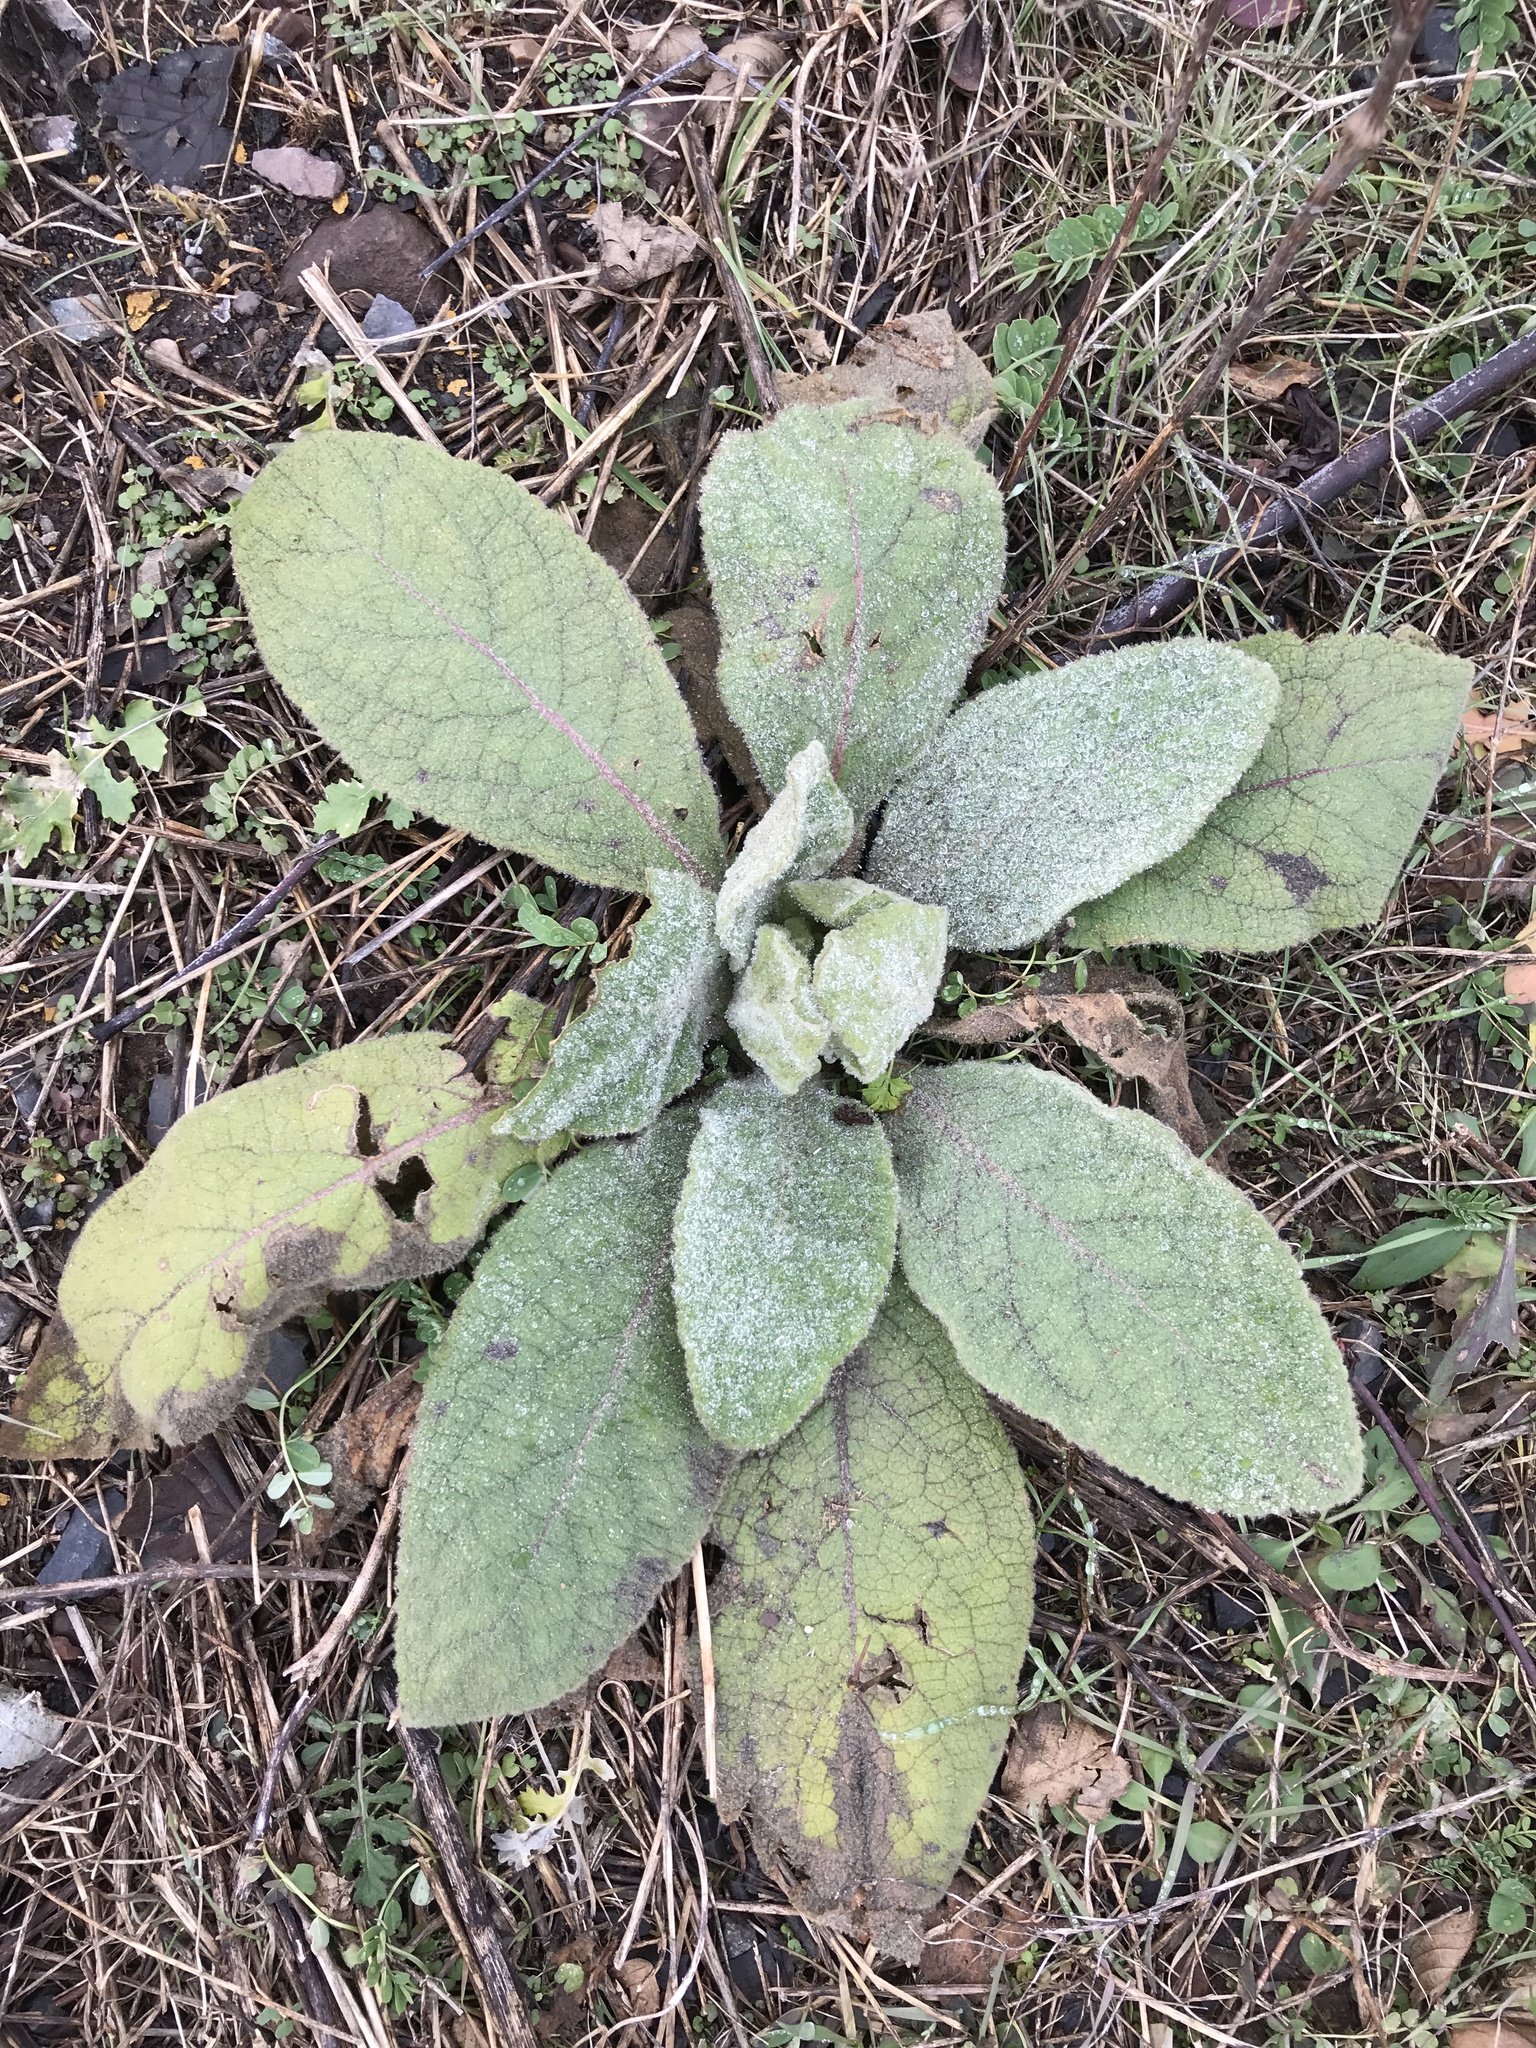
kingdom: Plantae
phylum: Tracheophyta
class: Magnoliopsida
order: Lamiales
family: Scrophulariaceae
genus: Verbascum
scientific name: Verbascum thapsus
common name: Common mullein
